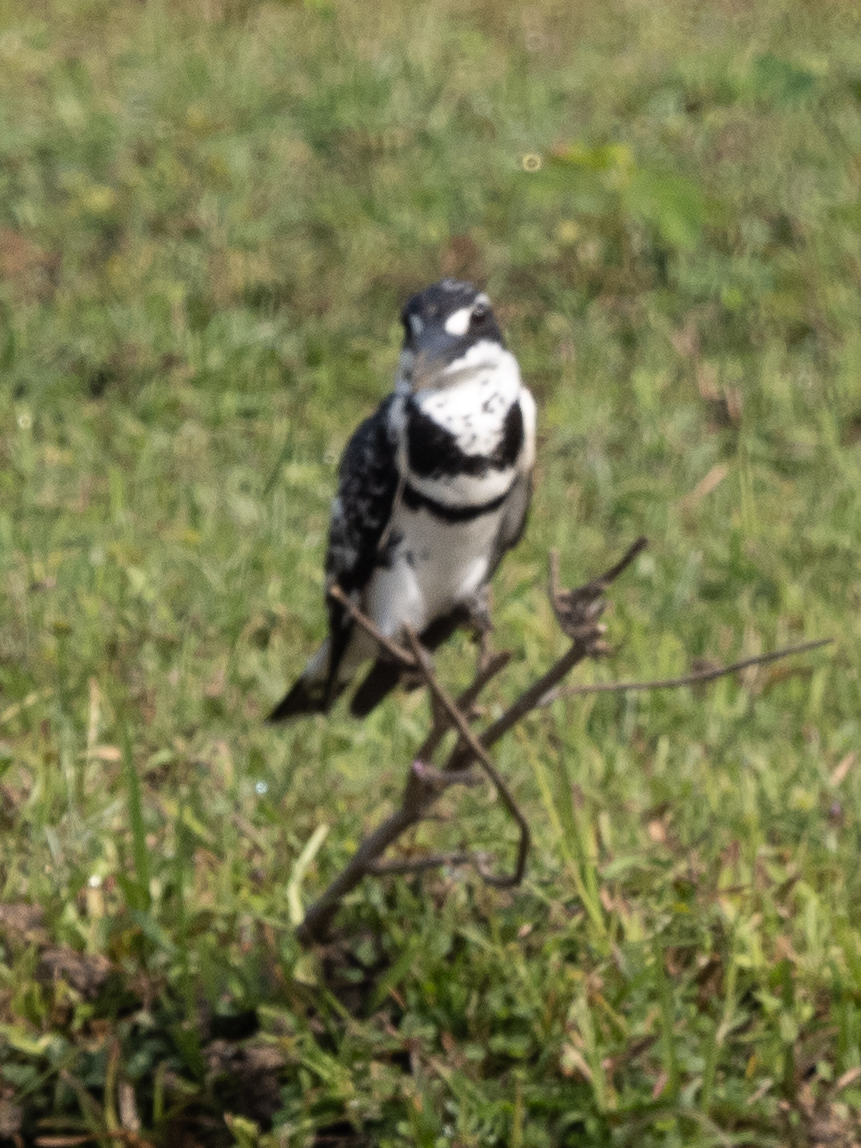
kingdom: Animalia
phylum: Chordata
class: Aves
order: Coraciiformes
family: Alcedinidae
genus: Ceryle
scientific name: Ceryle rudis
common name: Pied kingfisher
